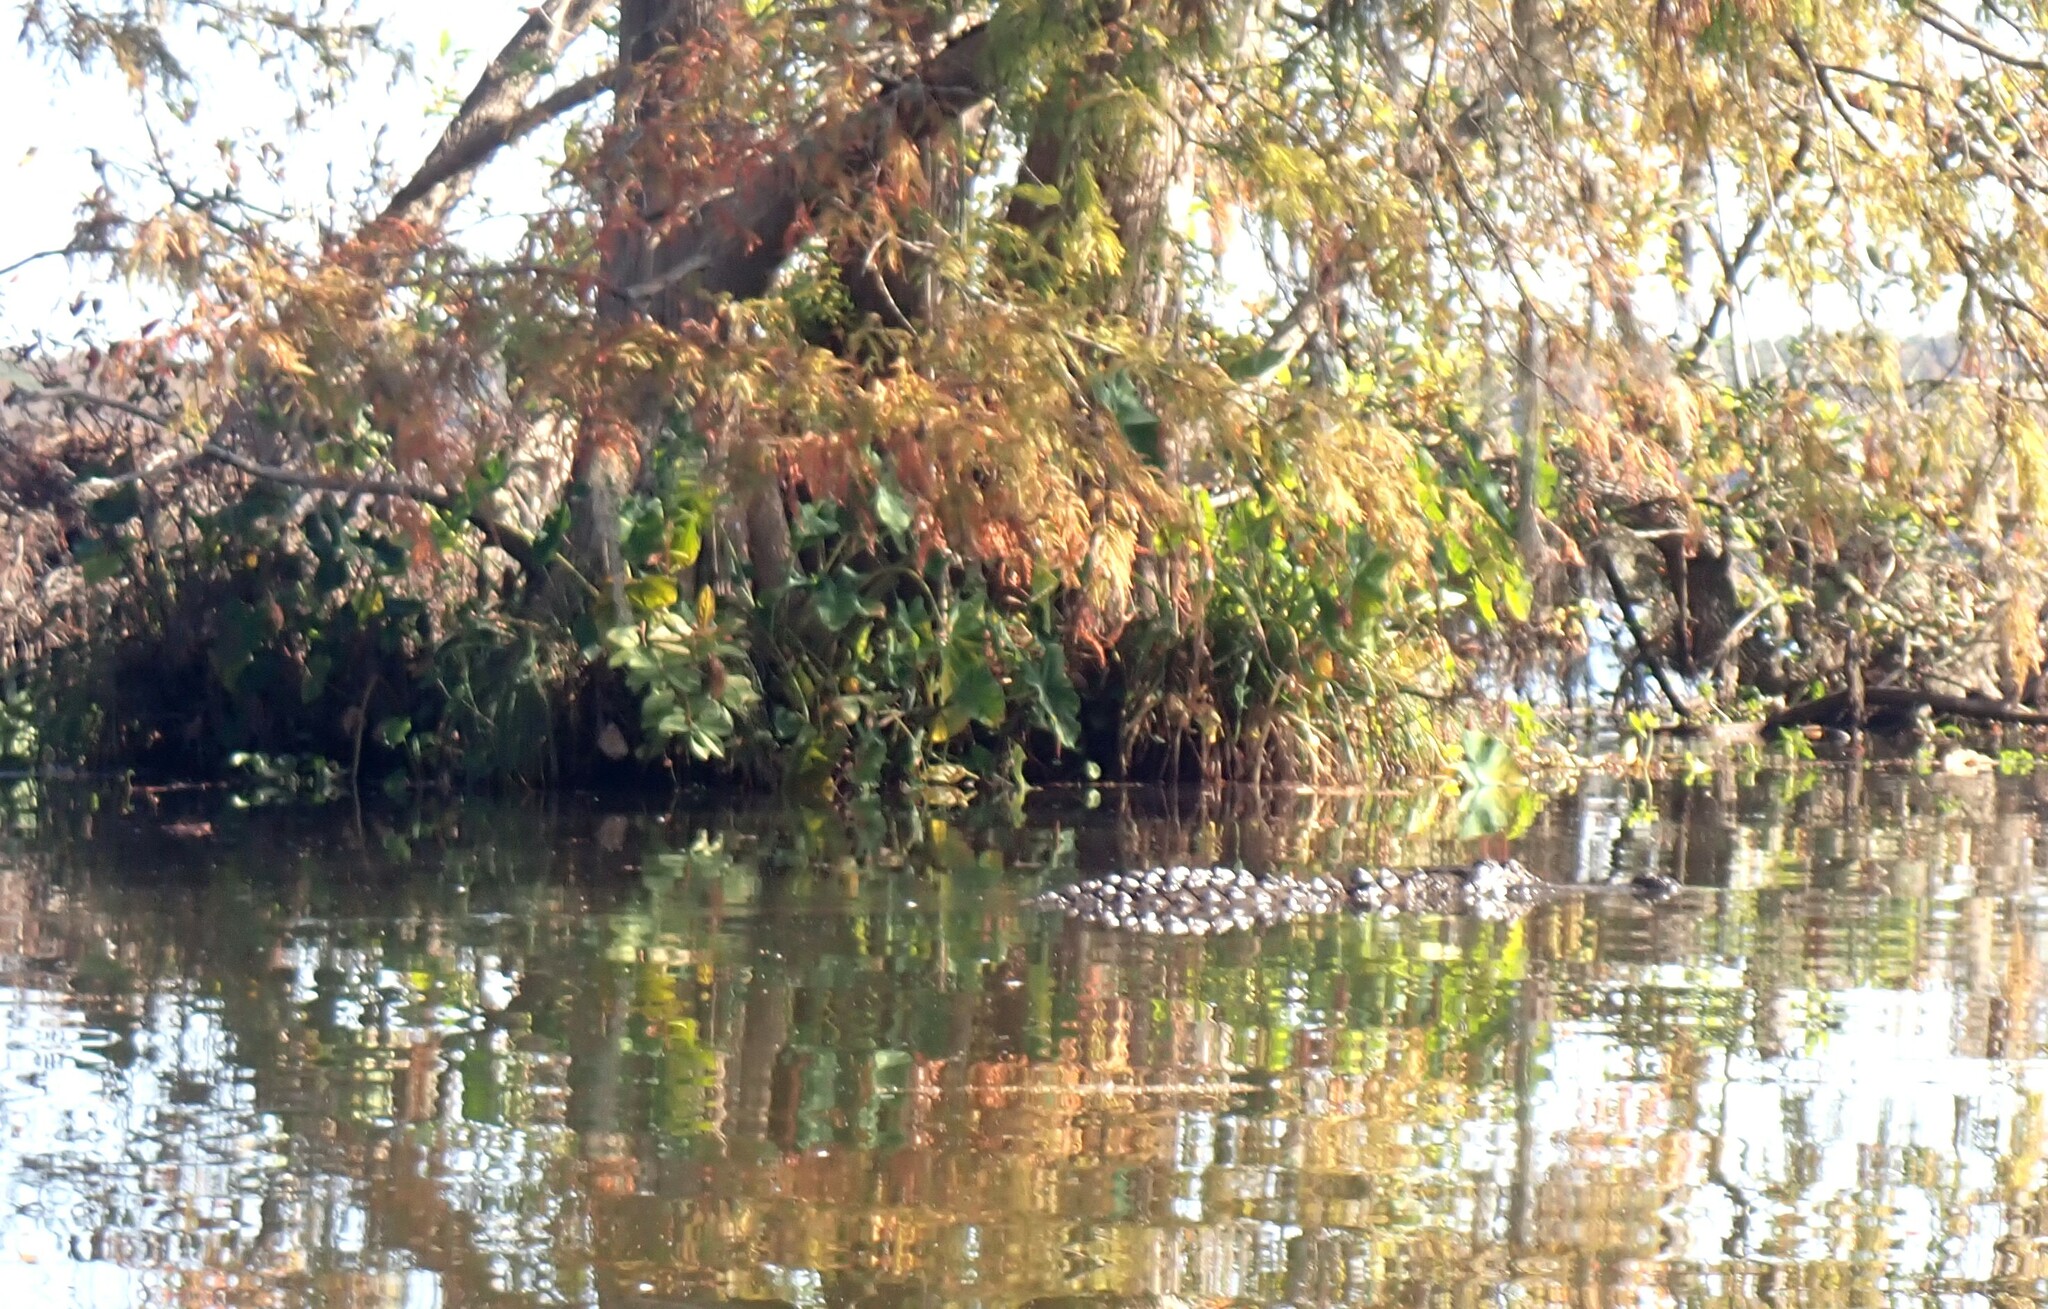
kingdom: Animalia
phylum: Chordata
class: Crocodylia
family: Alligatoridae
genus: Alligator
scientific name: Alligator mississippiensis
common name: American alligator
